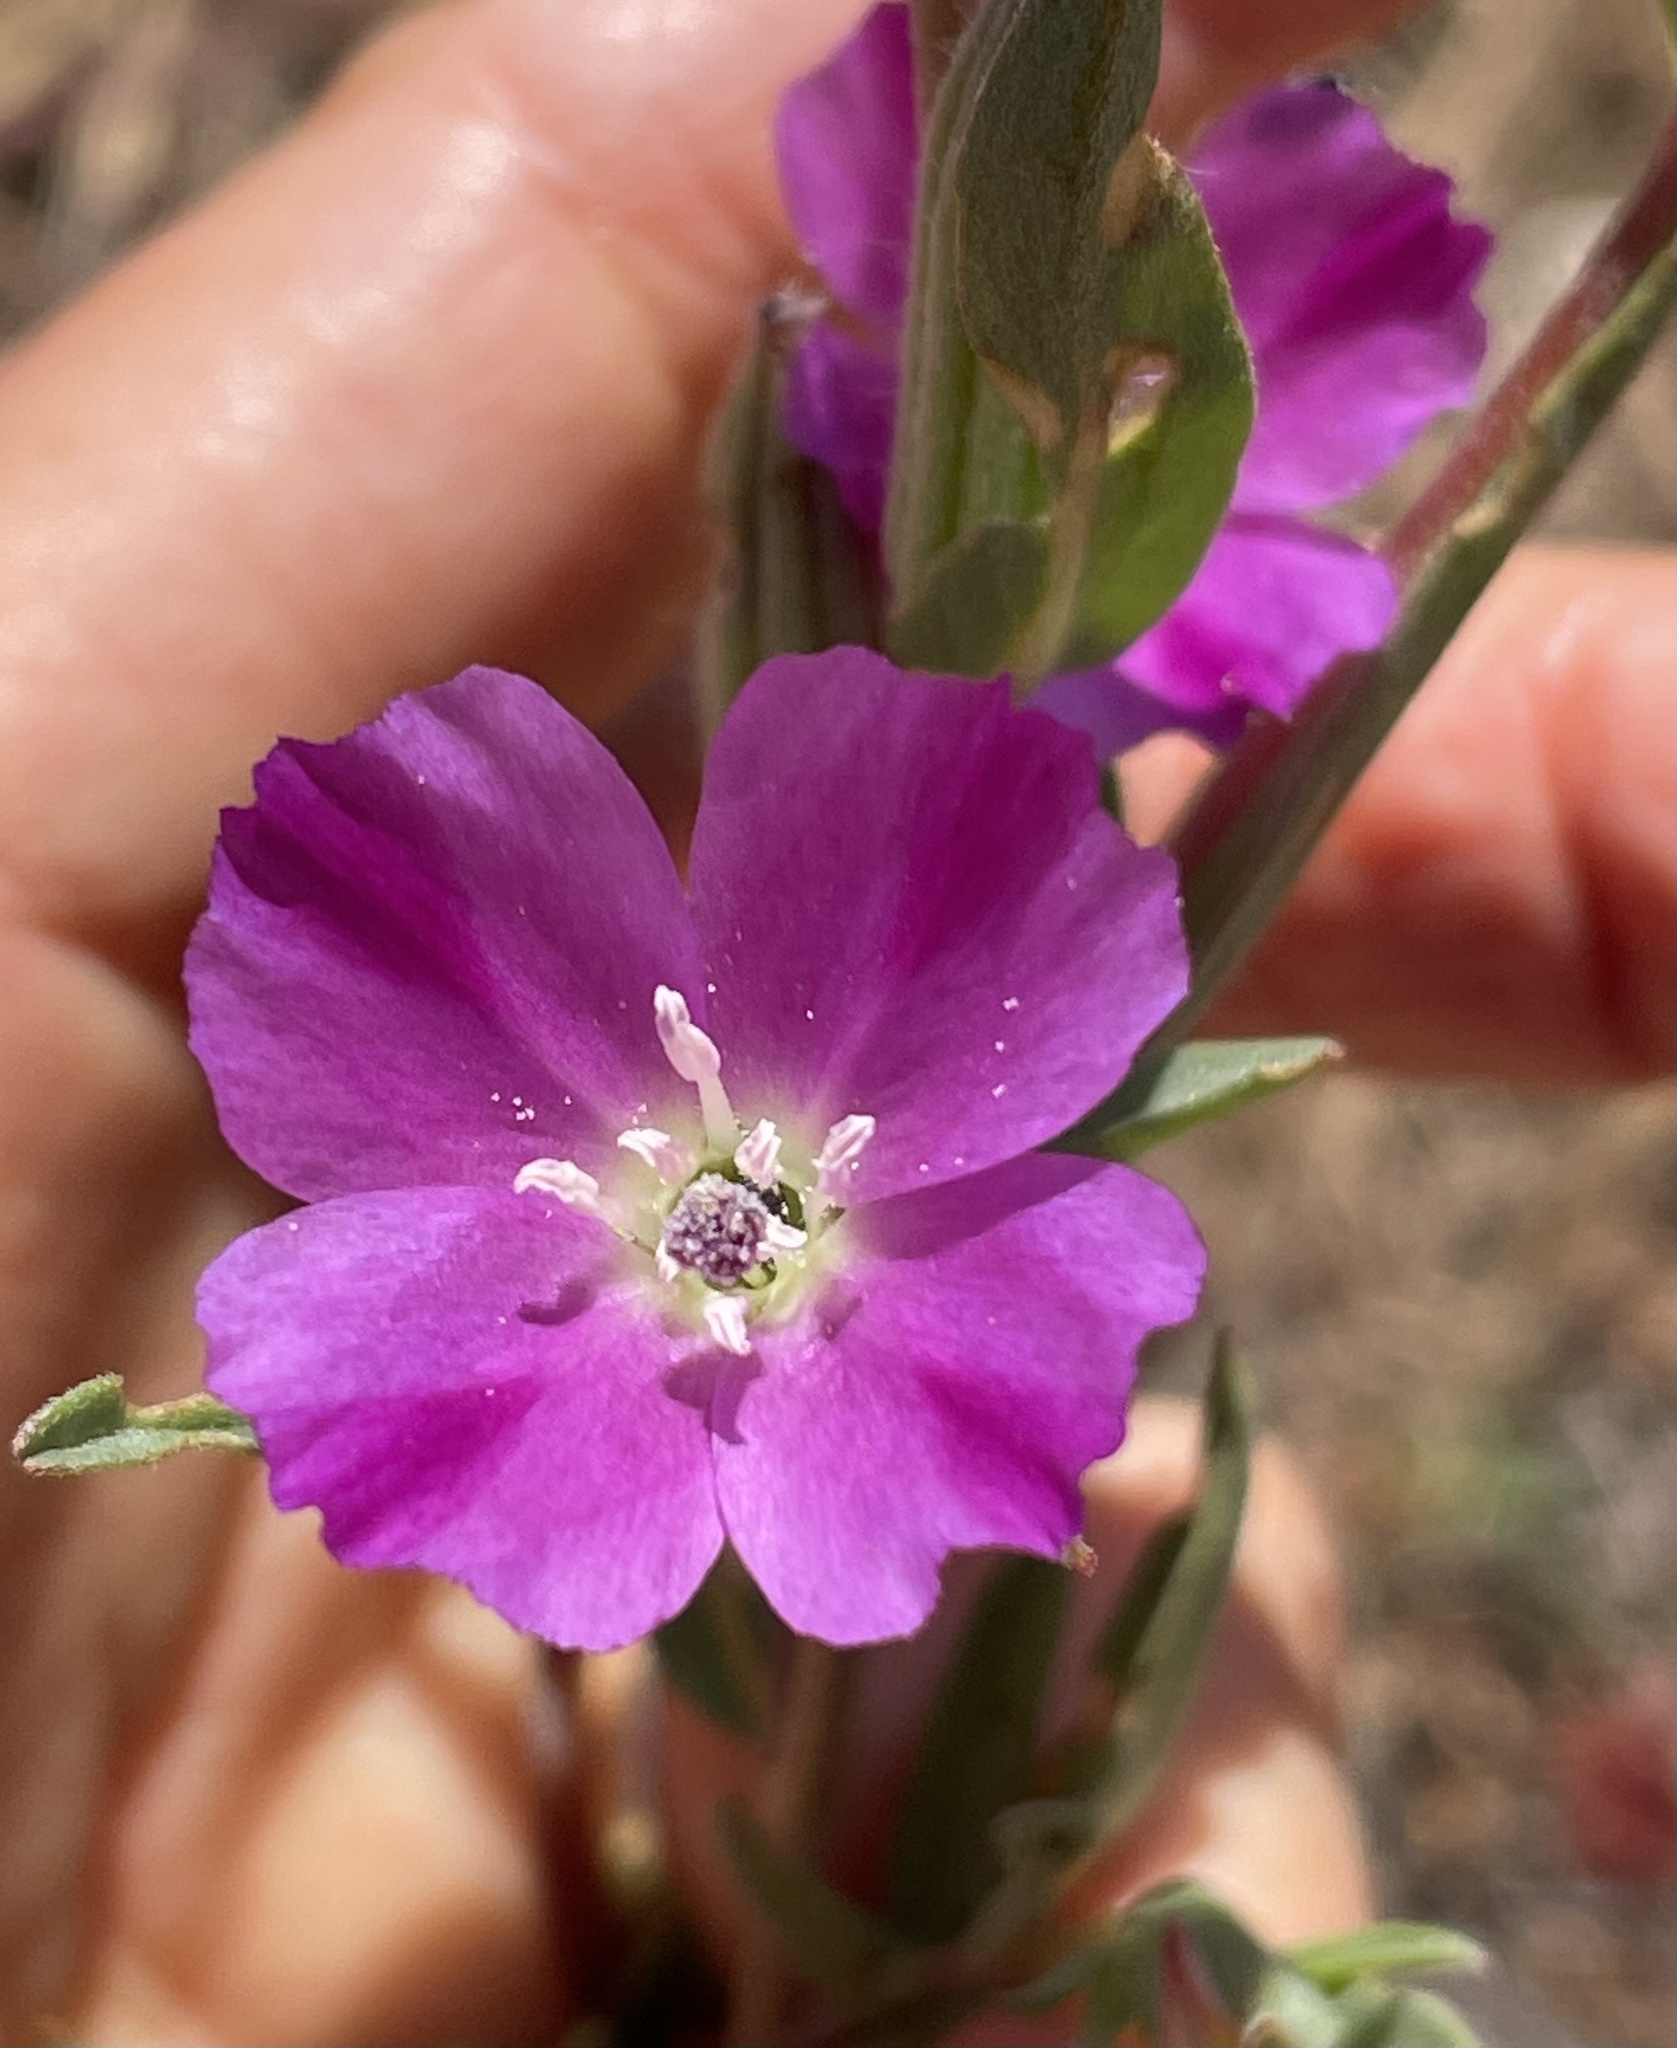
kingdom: Plantae
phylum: Tracheophyta
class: Magnoliopsida
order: Myrtales
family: Onagraceae
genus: Clarkia
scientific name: Clarkia purpurea
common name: Purple clarkia
